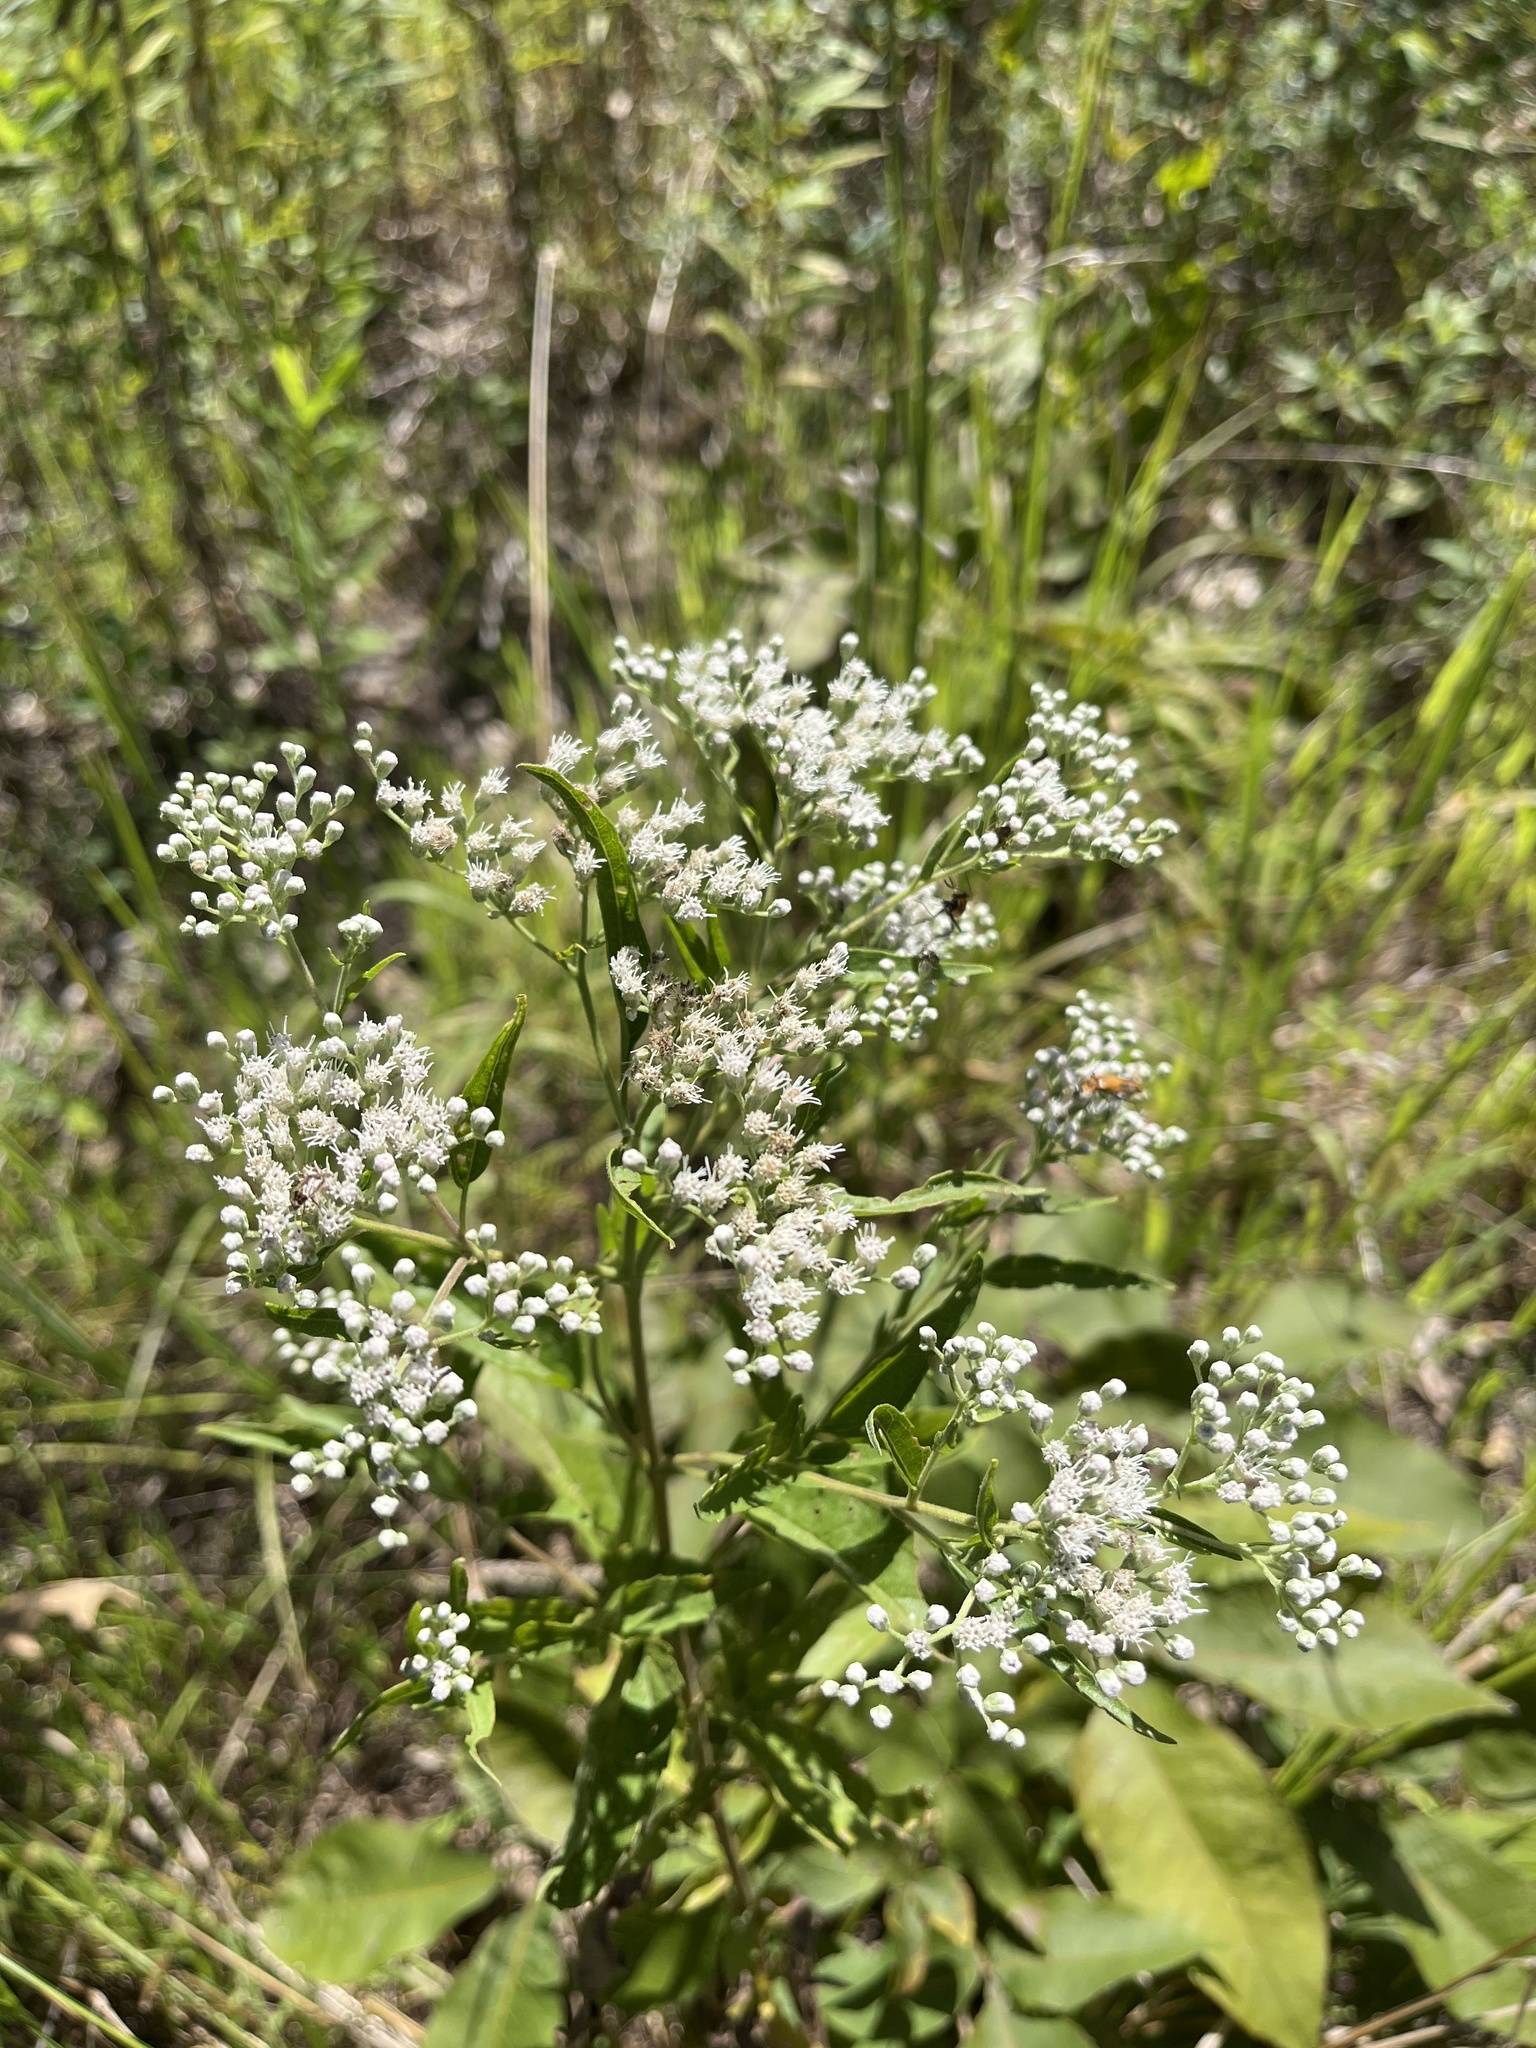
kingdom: Plantae
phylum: Tracheophyta
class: Magnoliopsida
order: Asterales
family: Asteraceae
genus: Eupatorium
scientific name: Eupatorium serotinum
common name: Late boneset
